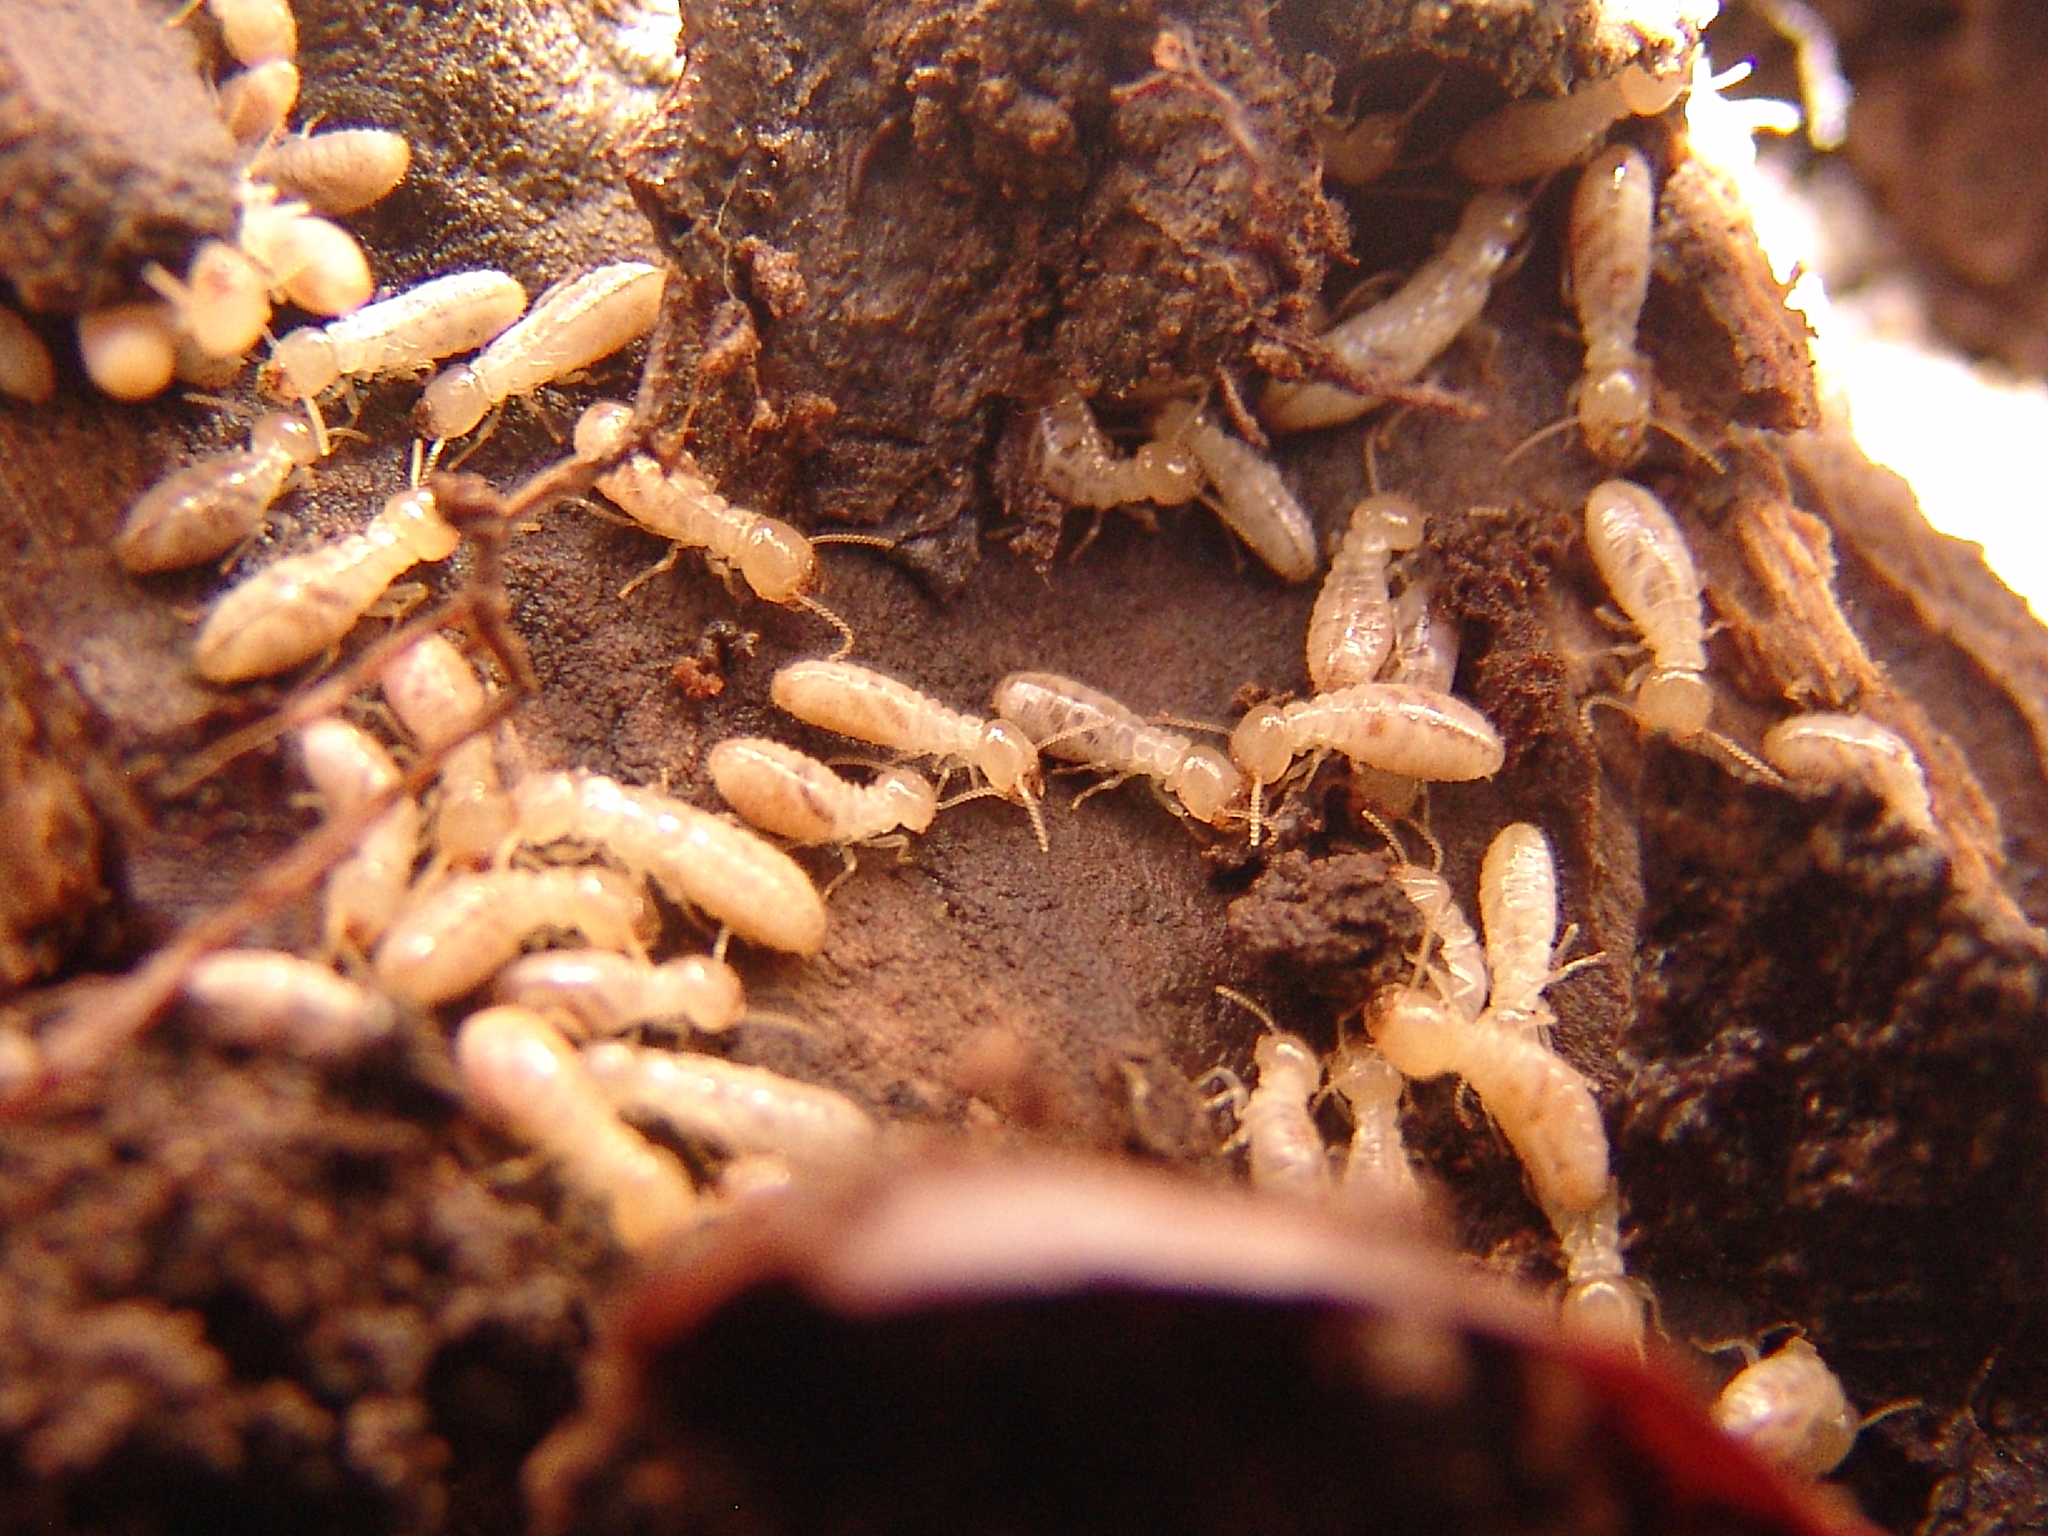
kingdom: Animalia
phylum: Arthropoda
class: Insecta
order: Blattodea
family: Rhinotermitidae
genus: Reticulitermes
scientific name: Reticulitermes flavipes
